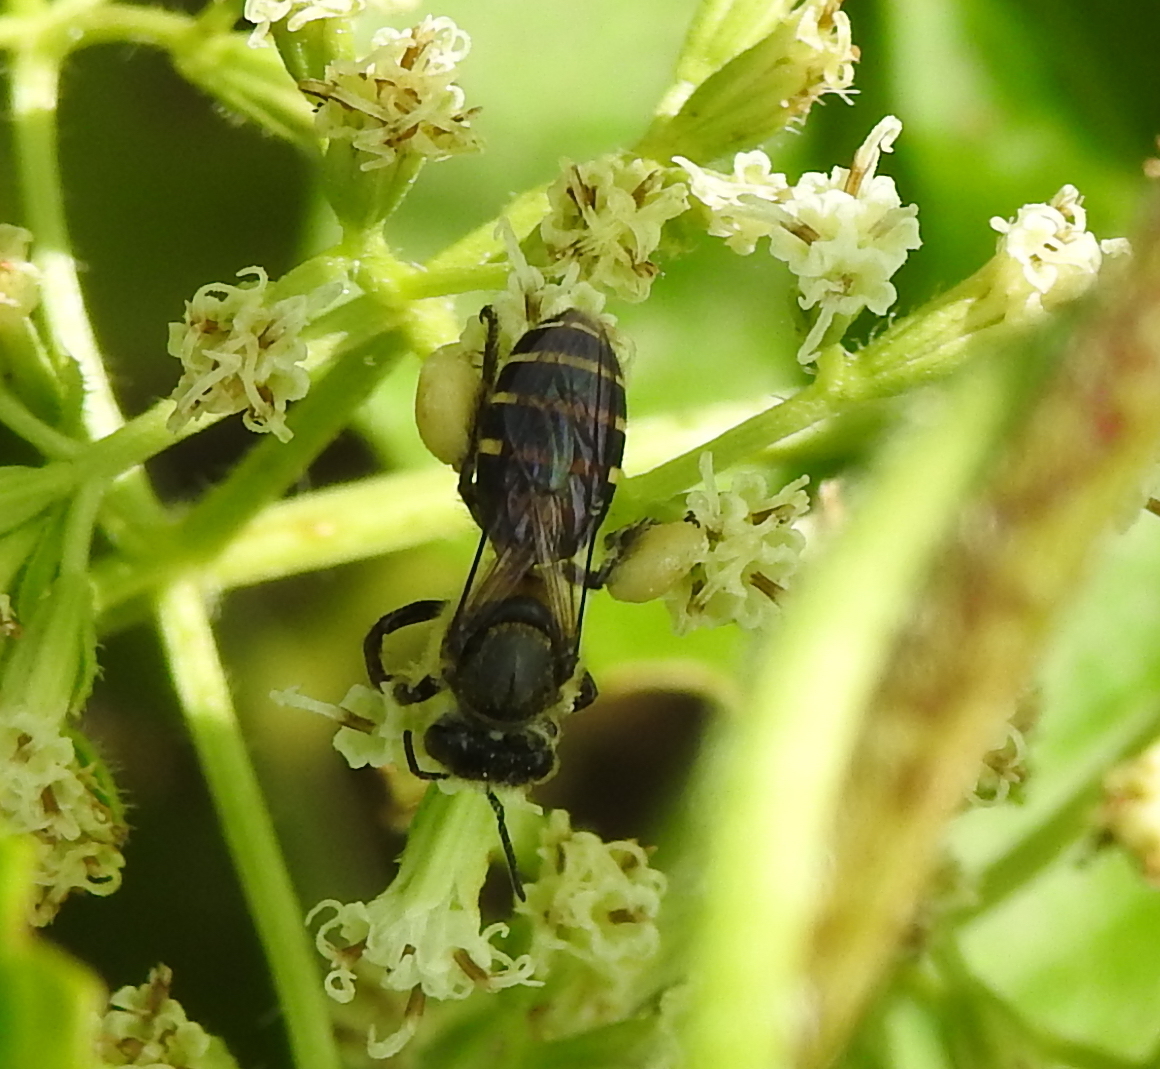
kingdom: Animalia
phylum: Arthropoda
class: Insecta
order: Hymenoptera
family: Apidae
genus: Apis
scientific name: Apis andreniformis
